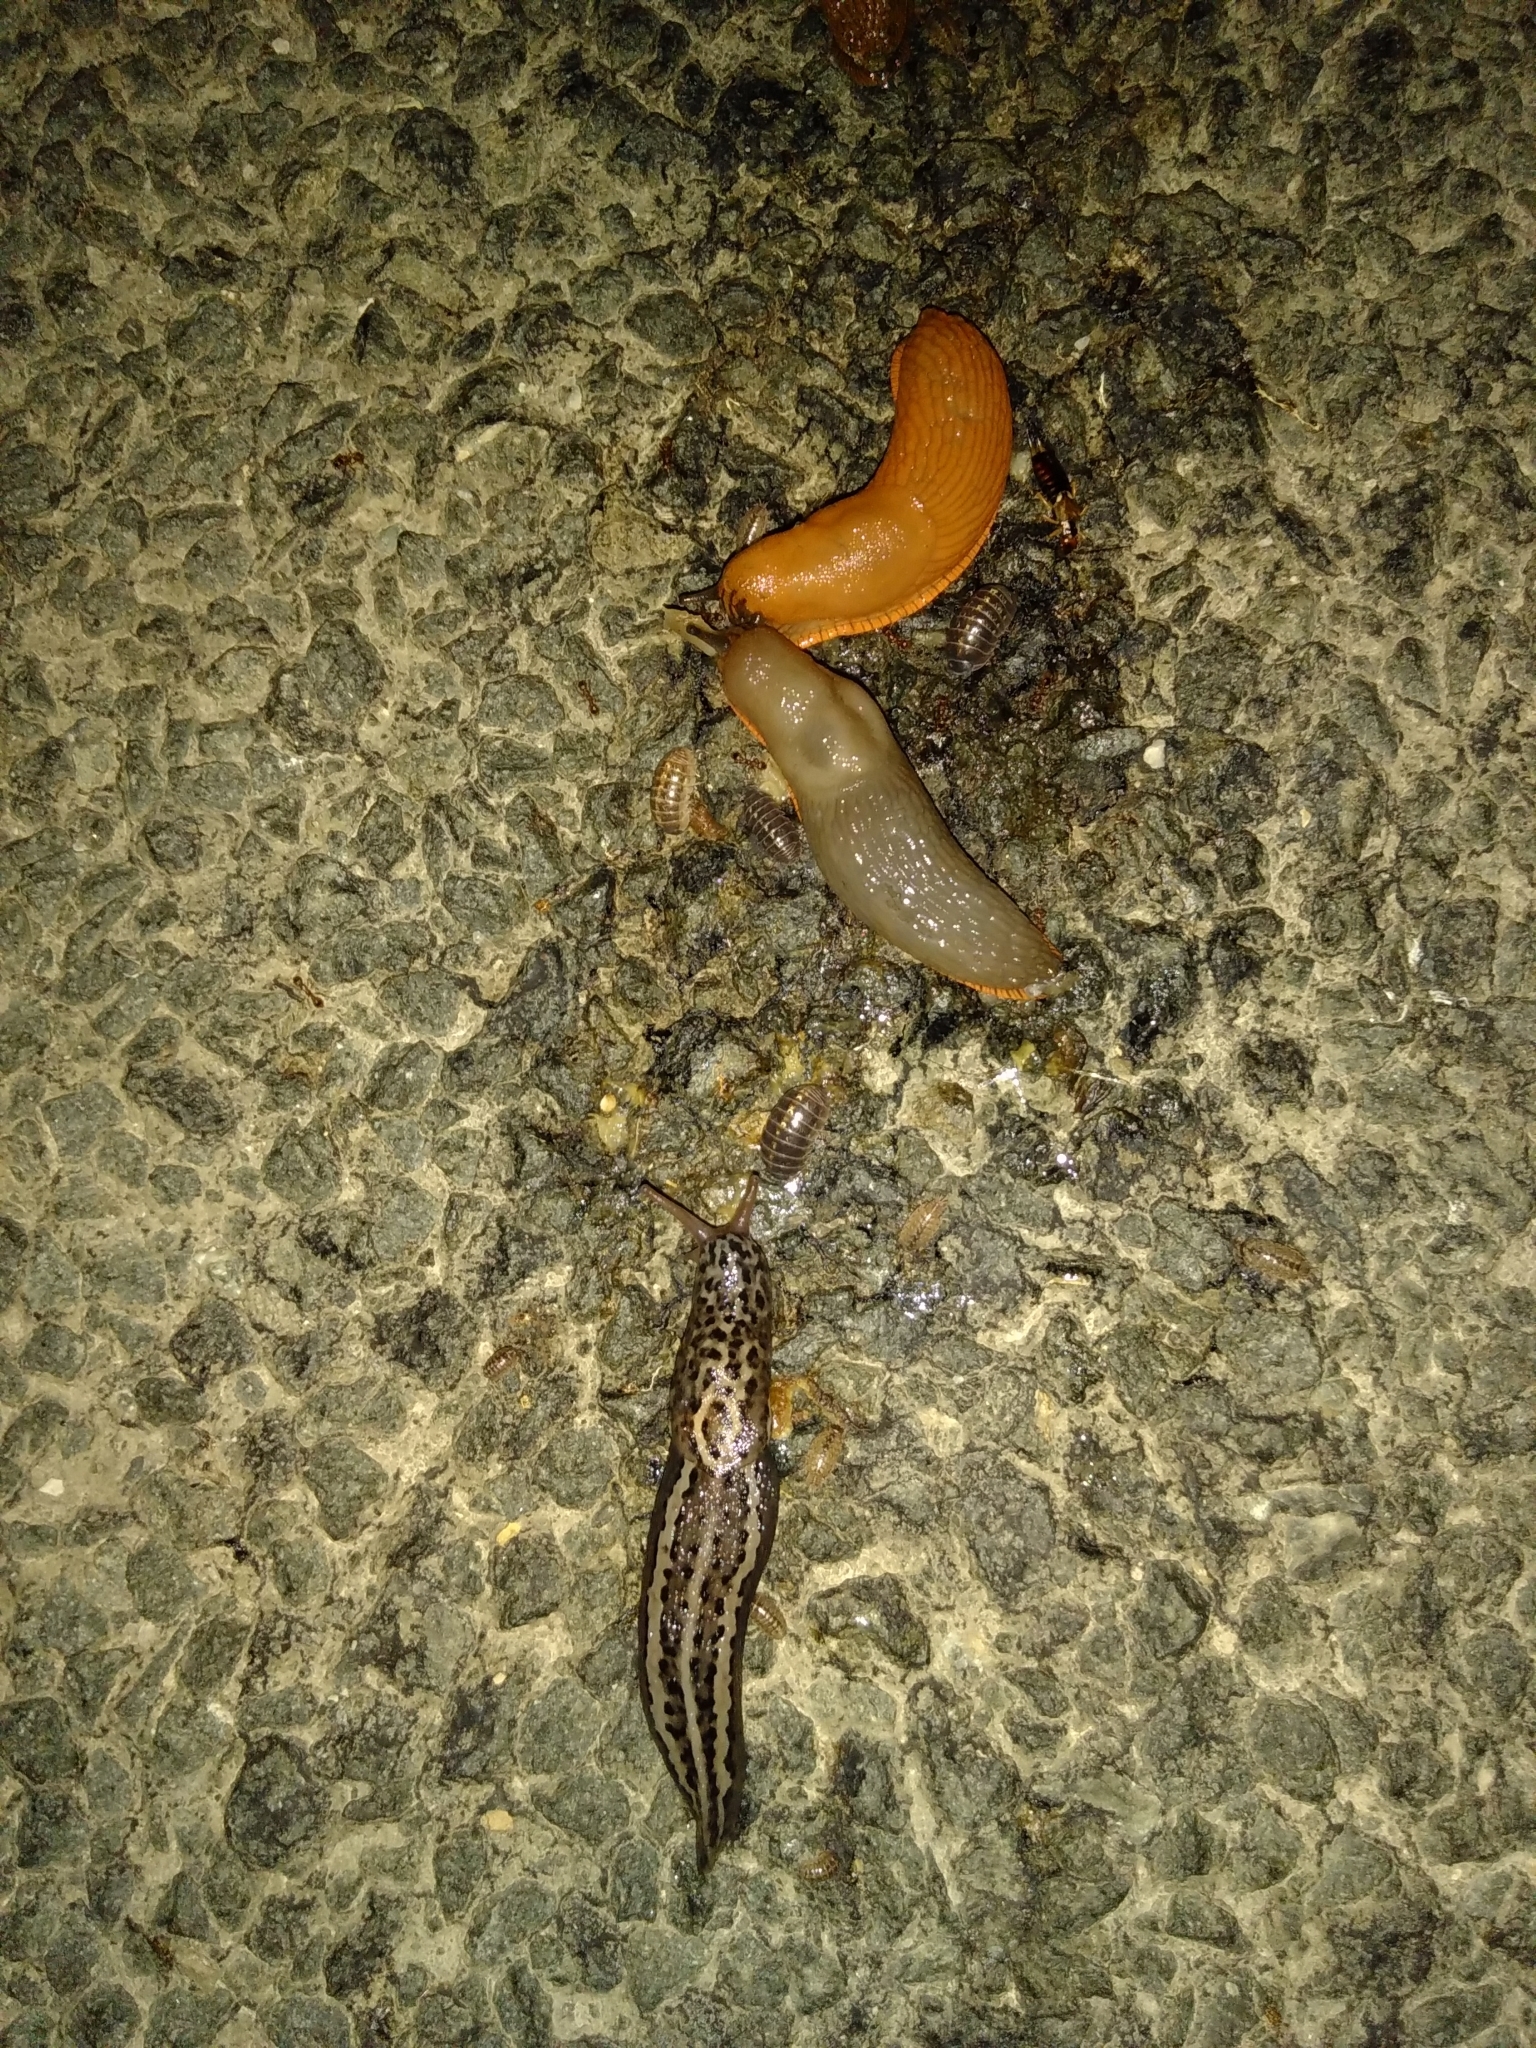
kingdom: Animalia
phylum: Mollusca
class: Gastropoda
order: Stylommatophora
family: Limacidae
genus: Limax
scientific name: Limax maximus
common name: Great grey slug
